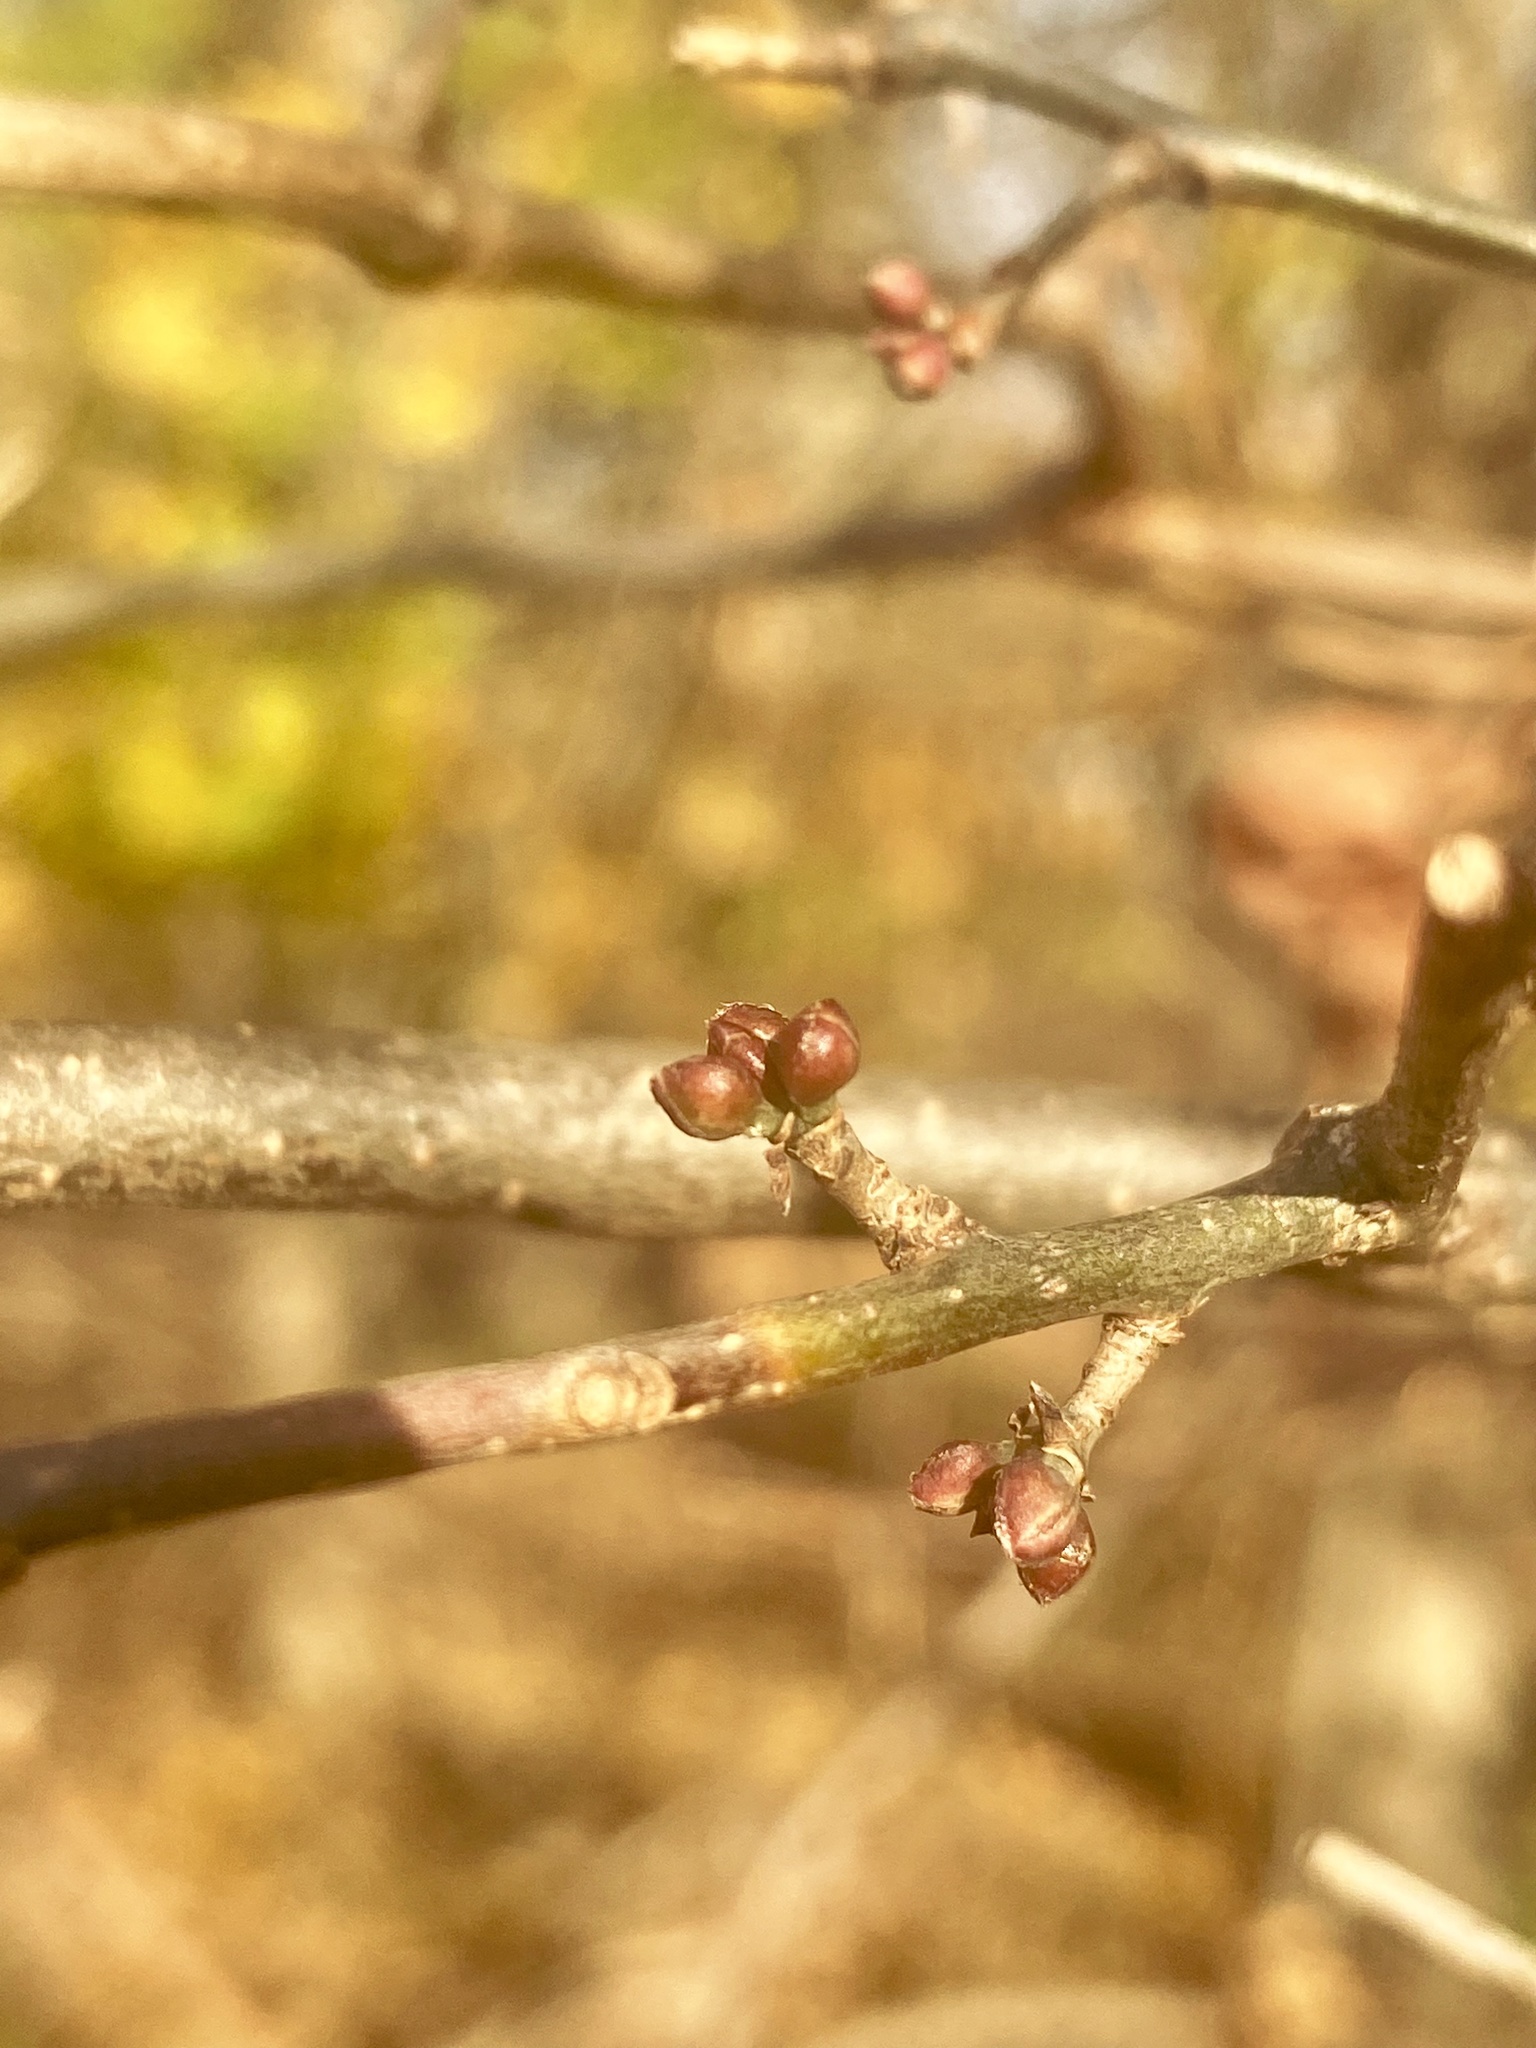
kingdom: Plantae
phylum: Tracheophyta
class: Magnoliopsida
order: Laurales
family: Lauraceae
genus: Lindera
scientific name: Lindera benzoin
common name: Spicebush
